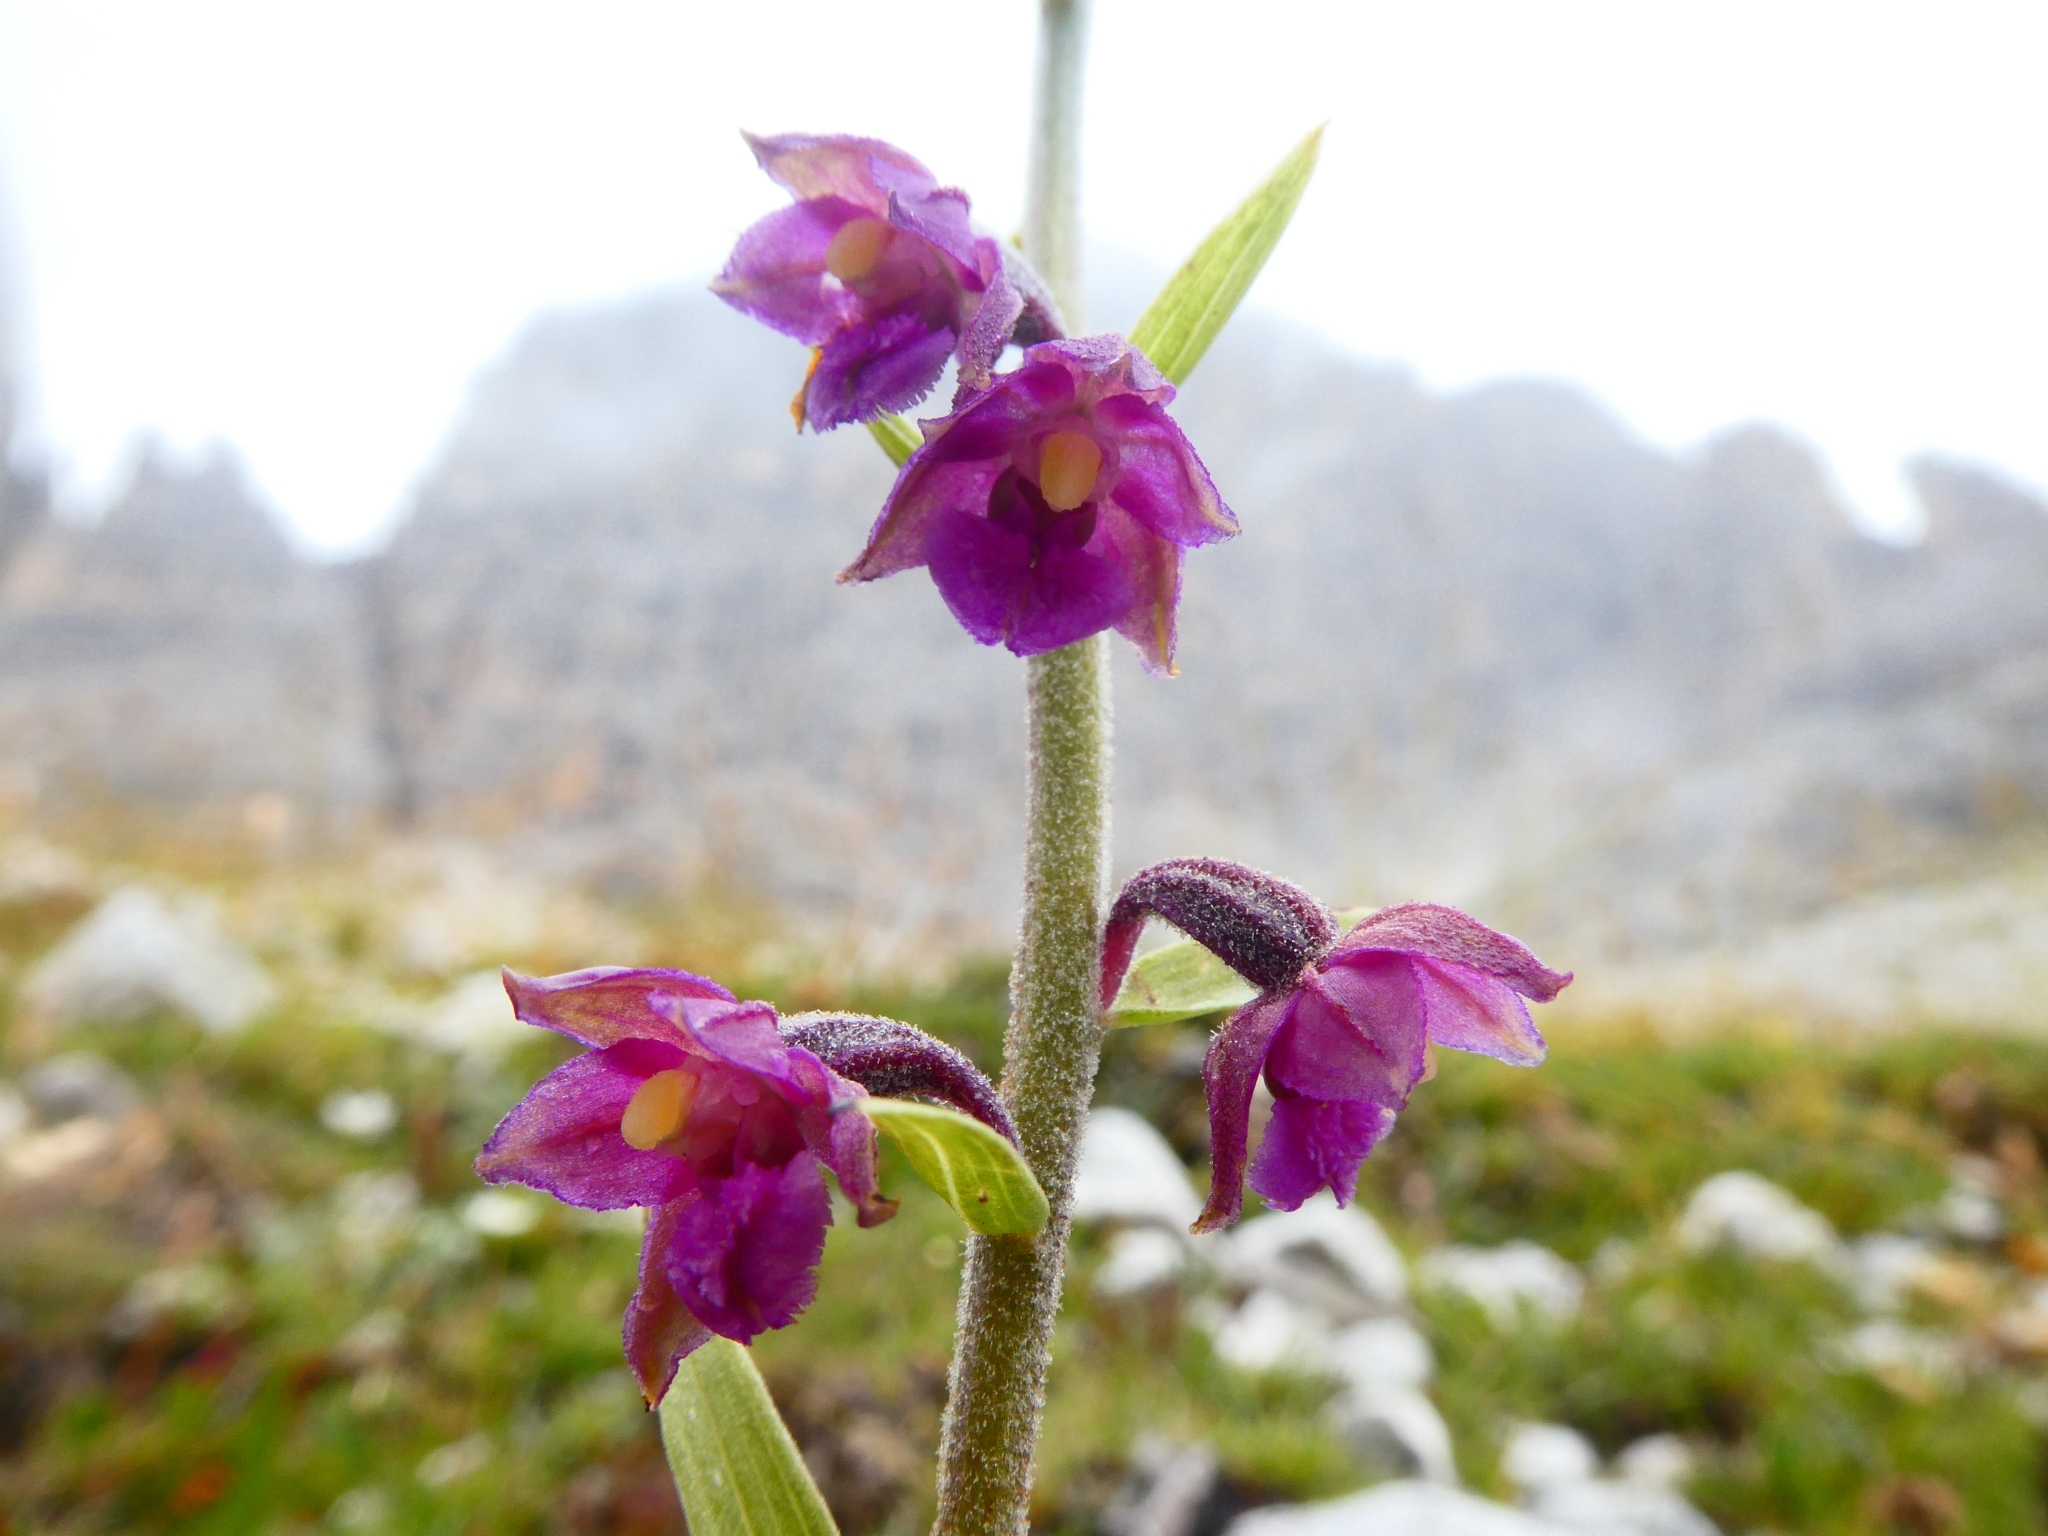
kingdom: Plantae
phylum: Tracheophyta
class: Liliopsida
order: Asparagales
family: Orchidaceae
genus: Epipactis
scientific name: Epipactis atrorubens
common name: Dark-red helleborine
